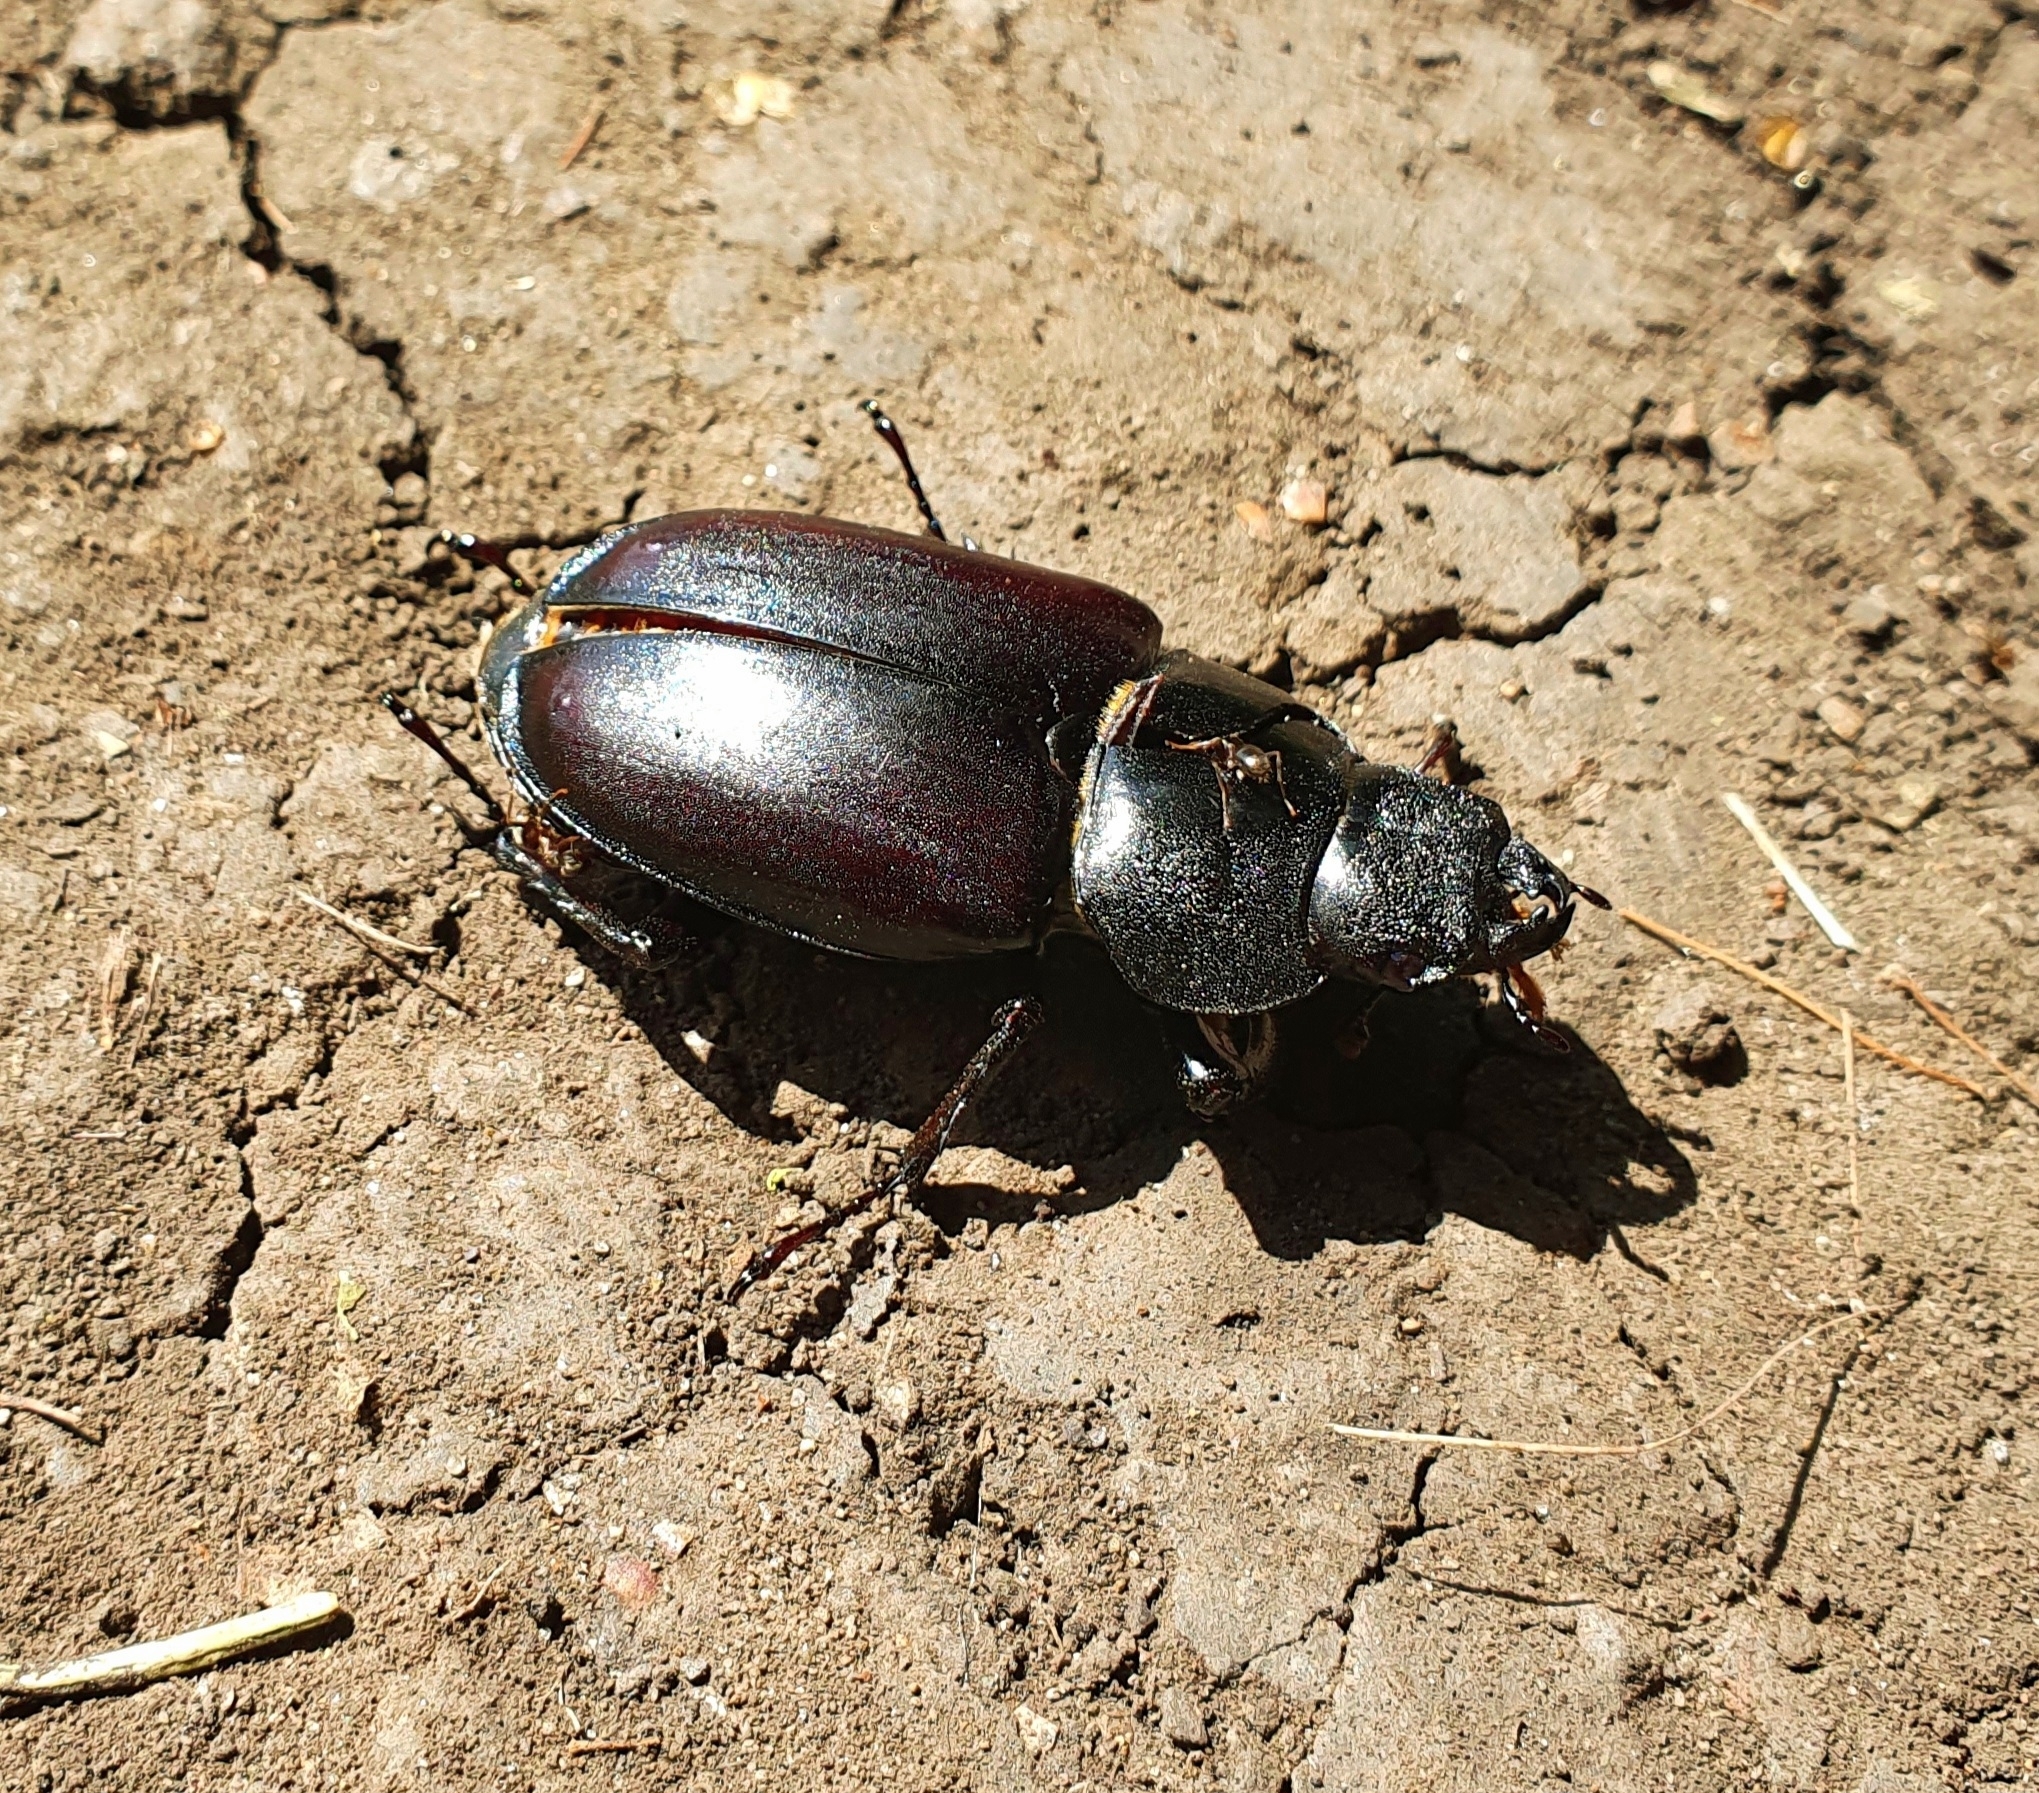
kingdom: Animalia
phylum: Arthropoda
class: Insecta
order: Coleoptera
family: Lucanidae
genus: Lucanus
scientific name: Lucanus cervus
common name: Stag beetle
